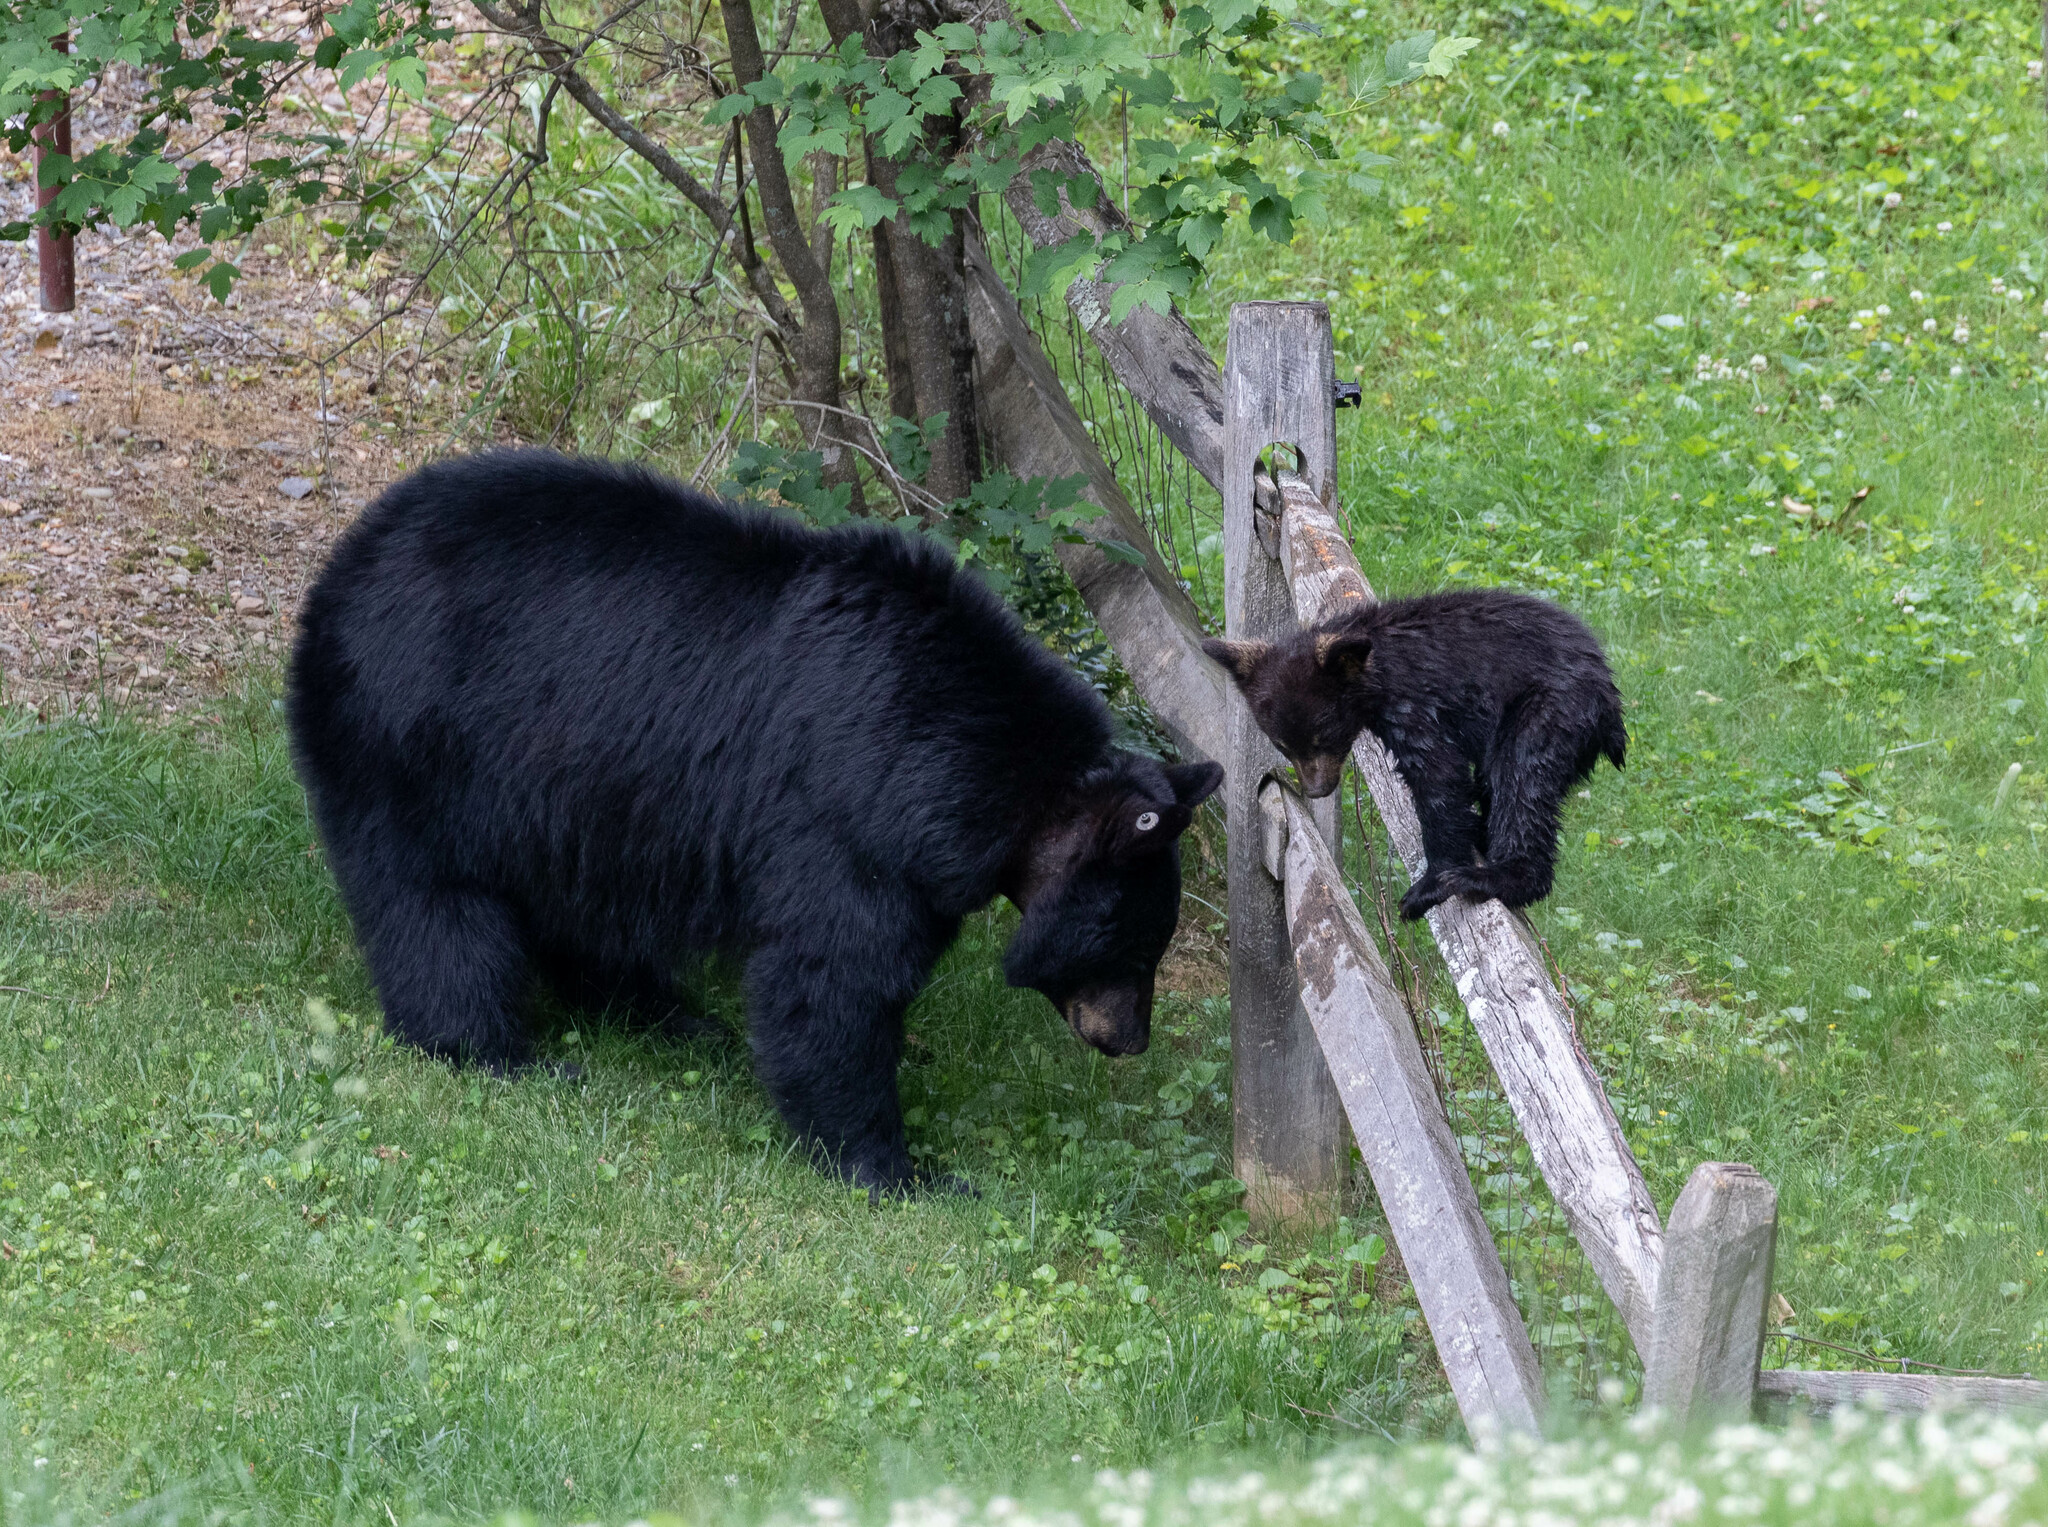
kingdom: Animalia
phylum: Chordata
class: Mammalia
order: Carnivora
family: Ursidae
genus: Ursus
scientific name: Ursus americanus
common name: American black bear
